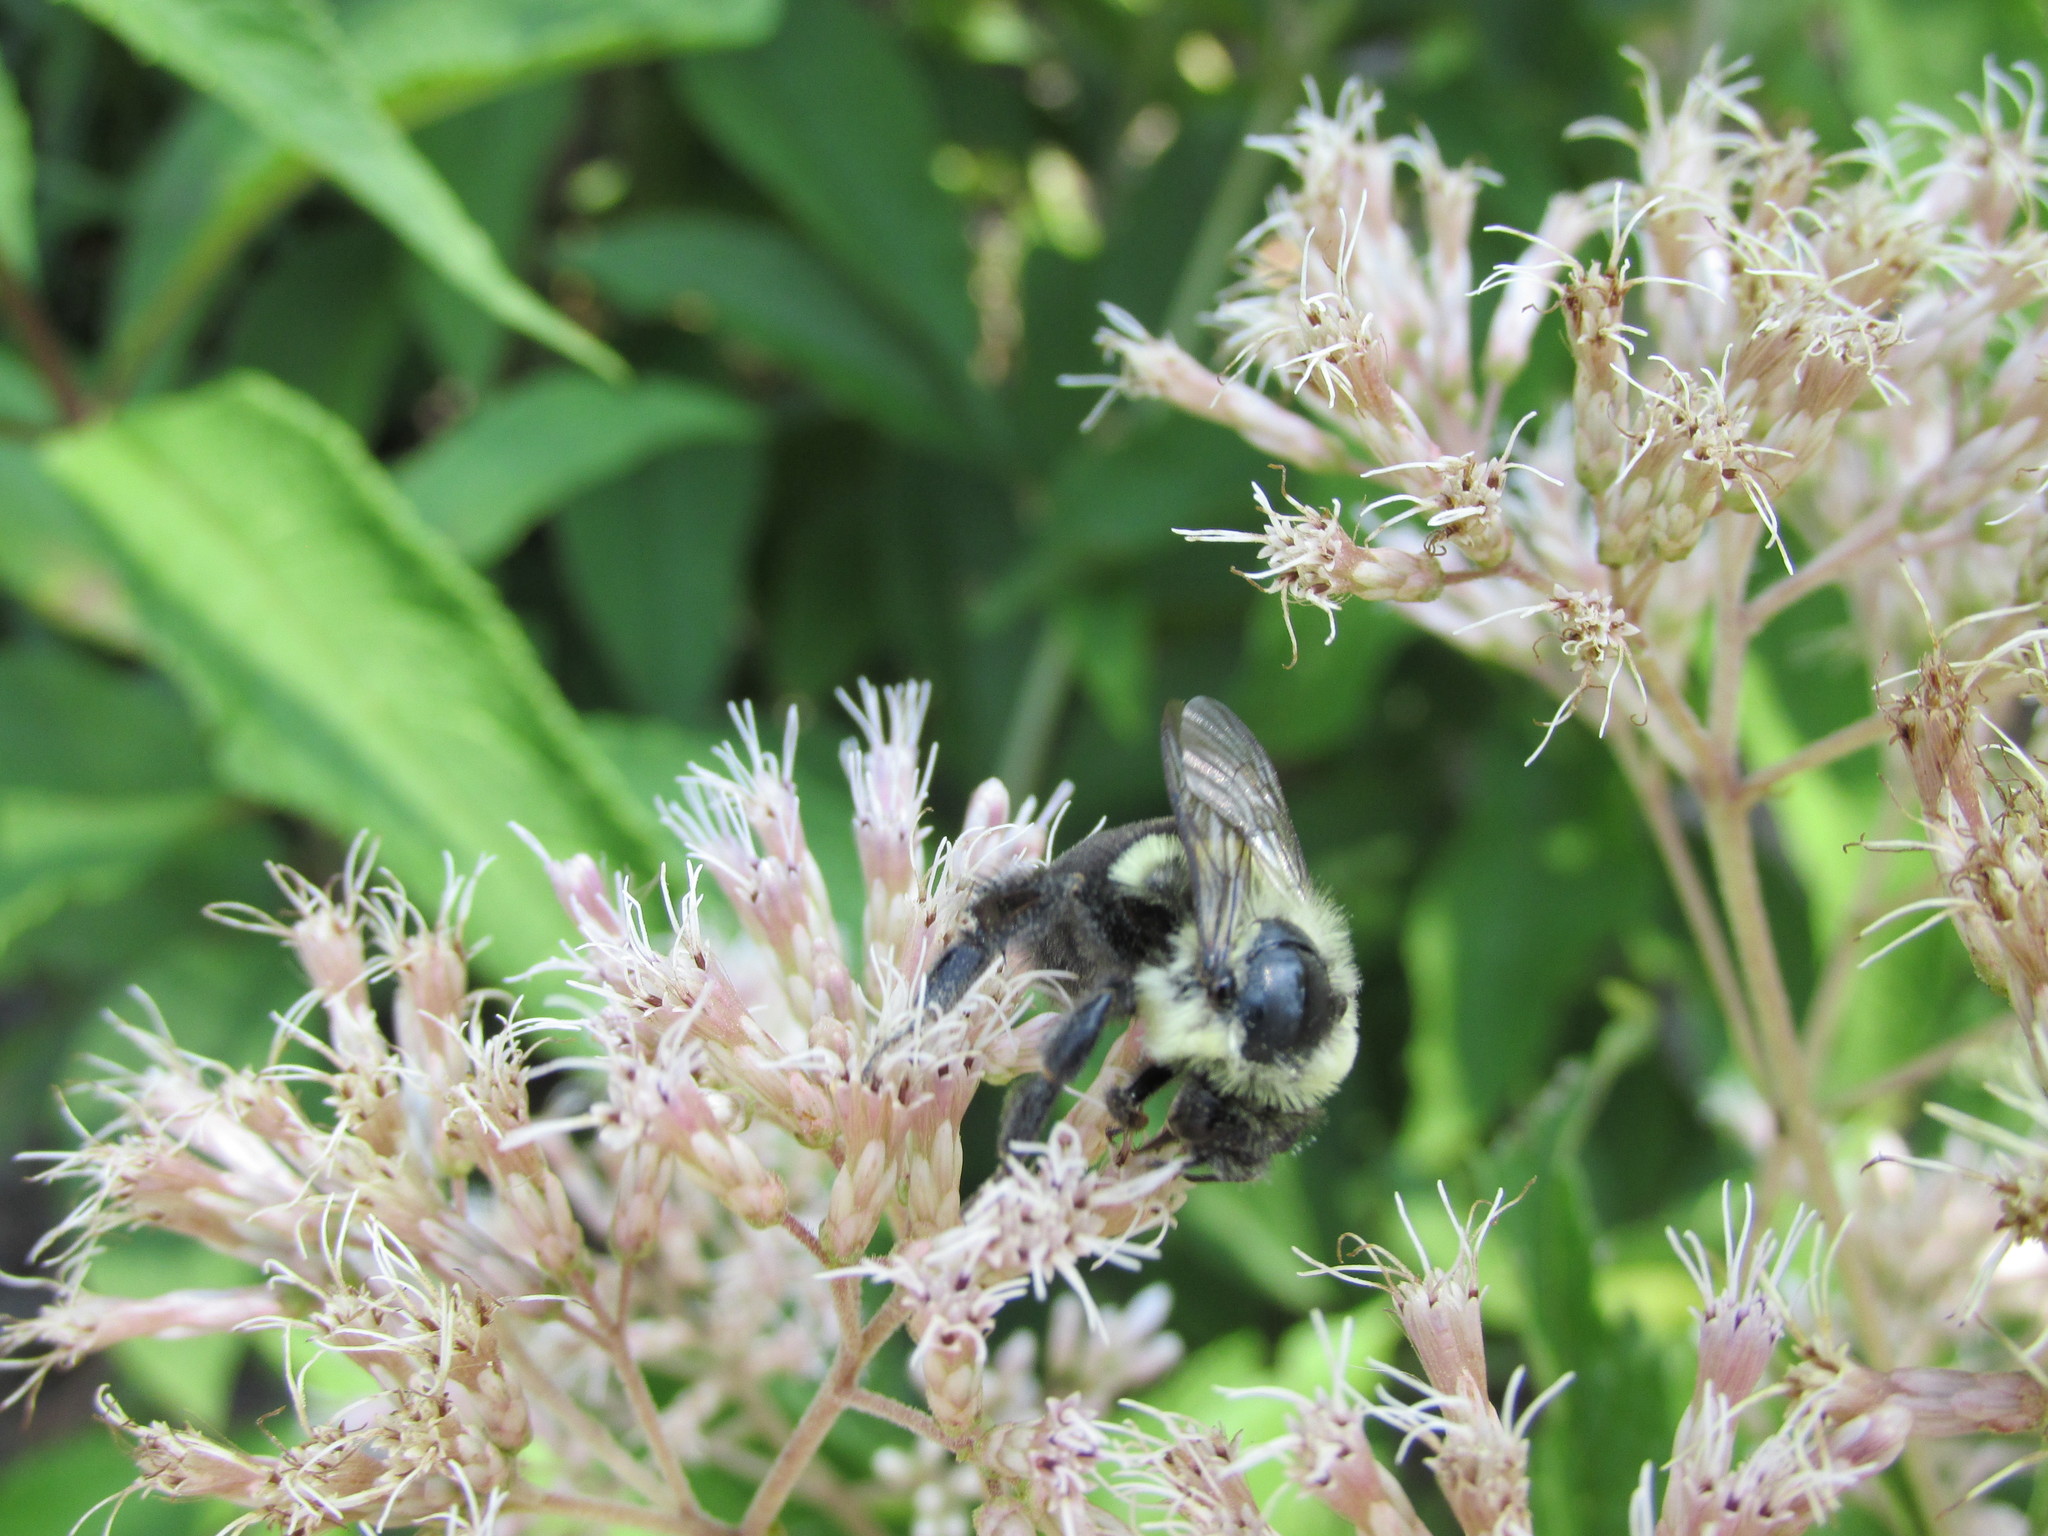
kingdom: Animalia
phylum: Arthropoda
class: Insecta
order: Hymenoptera
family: Apidae
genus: Bombus
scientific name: Bombus impatiens
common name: Common eastern bumble bee
